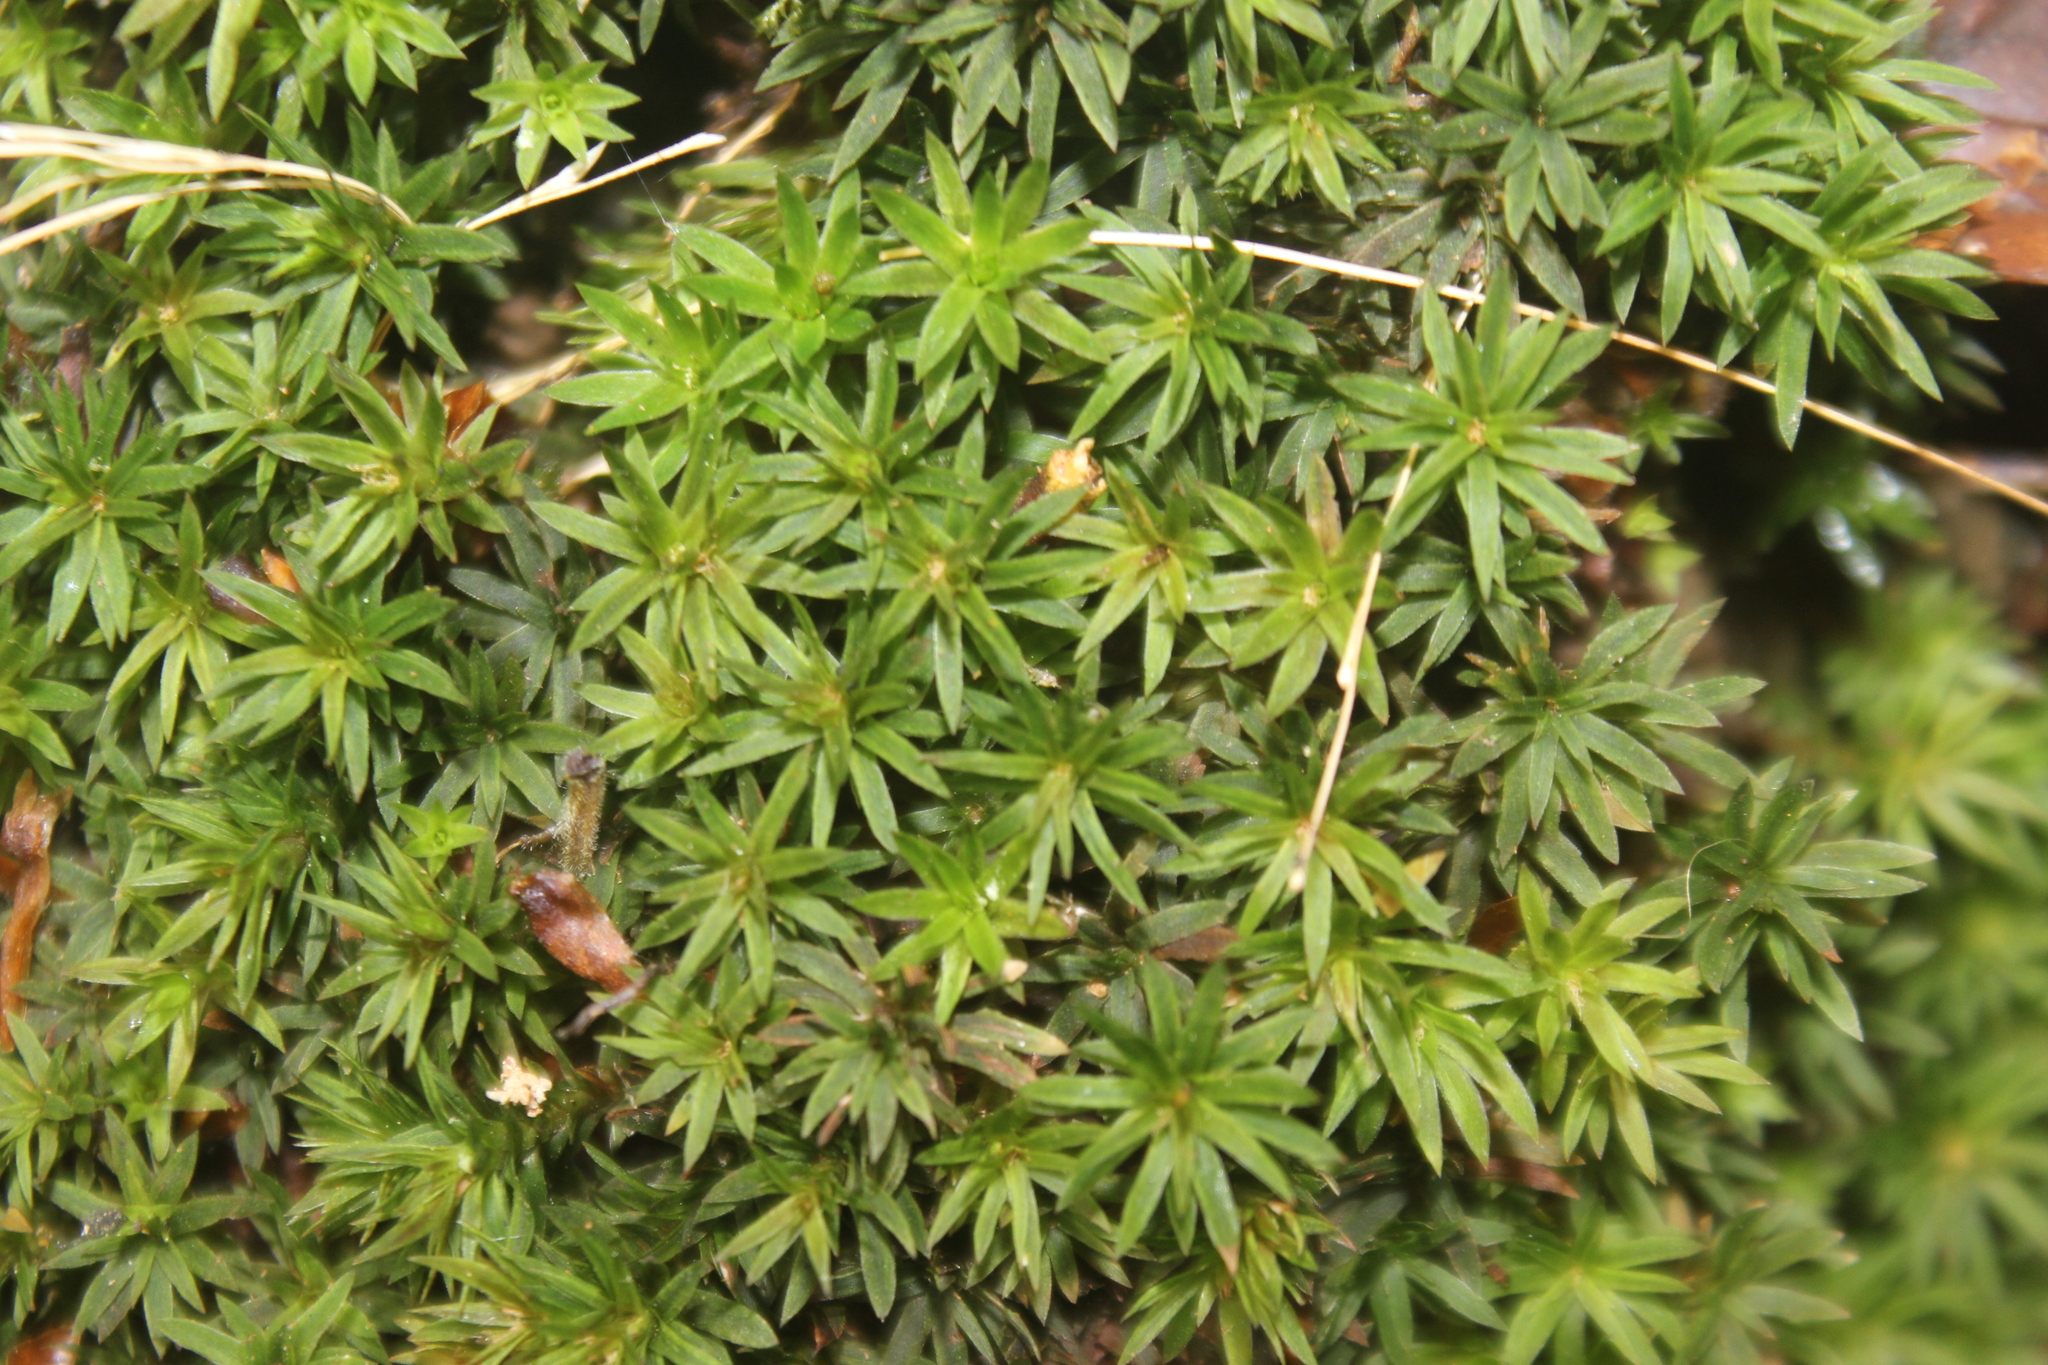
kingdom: Plantae
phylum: Bryophyta
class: Polytrichopsida
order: Polytrichales
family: Polytrichaceae
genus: Pogonatum
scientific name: Pogonatum subulatum
